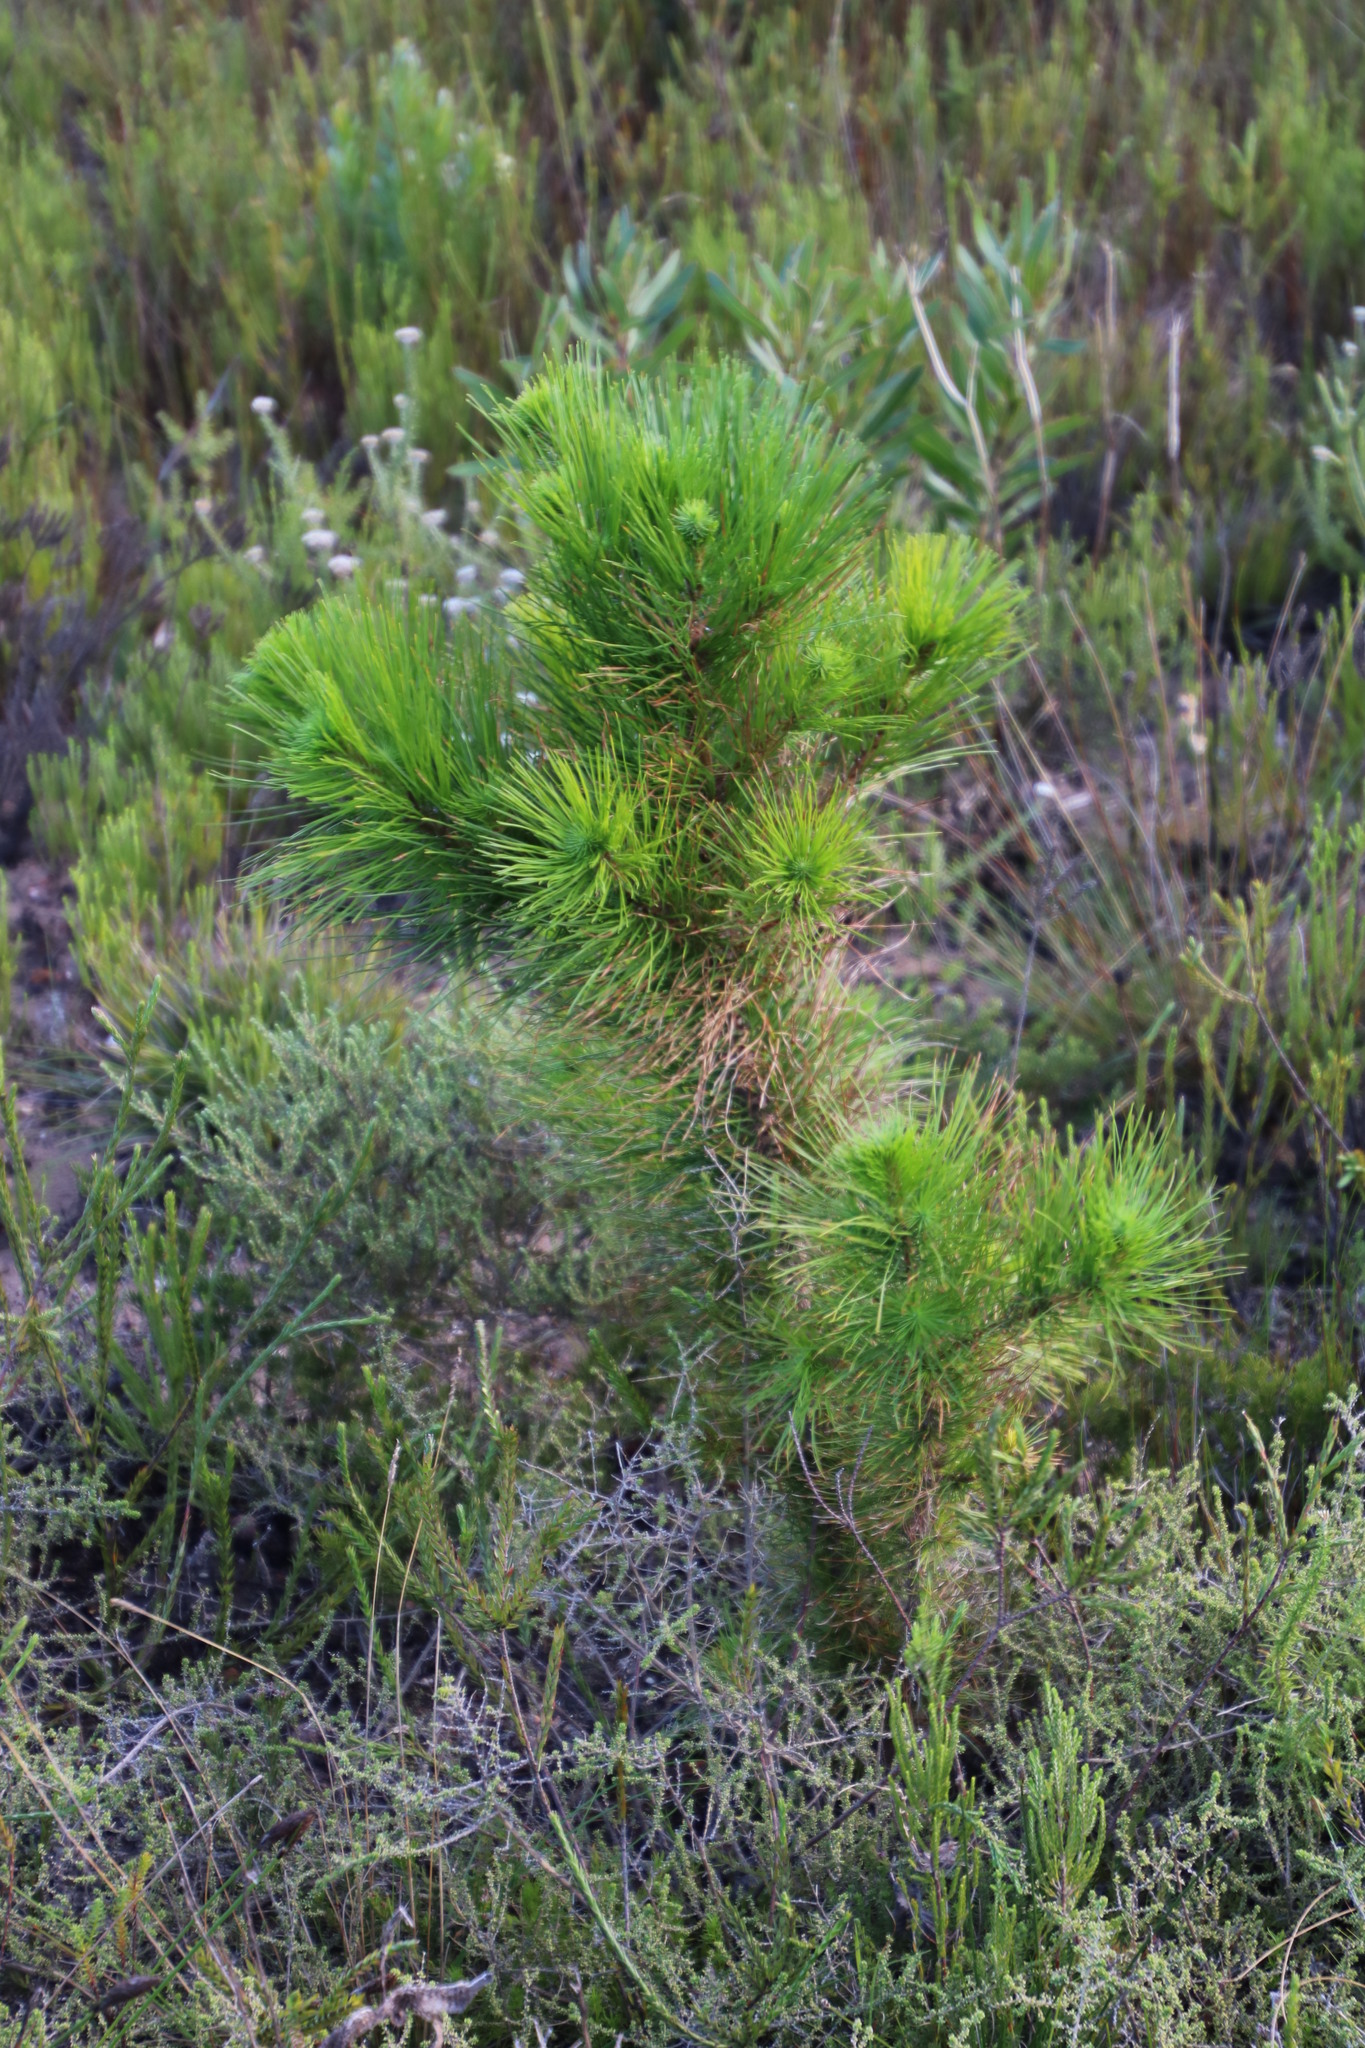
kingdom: Plantae
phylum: Tracheophyta
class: Pinopsida
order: Pinales
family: Pinaceae
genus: Pinus
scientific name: Pinus radiata
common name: Monterey pine
